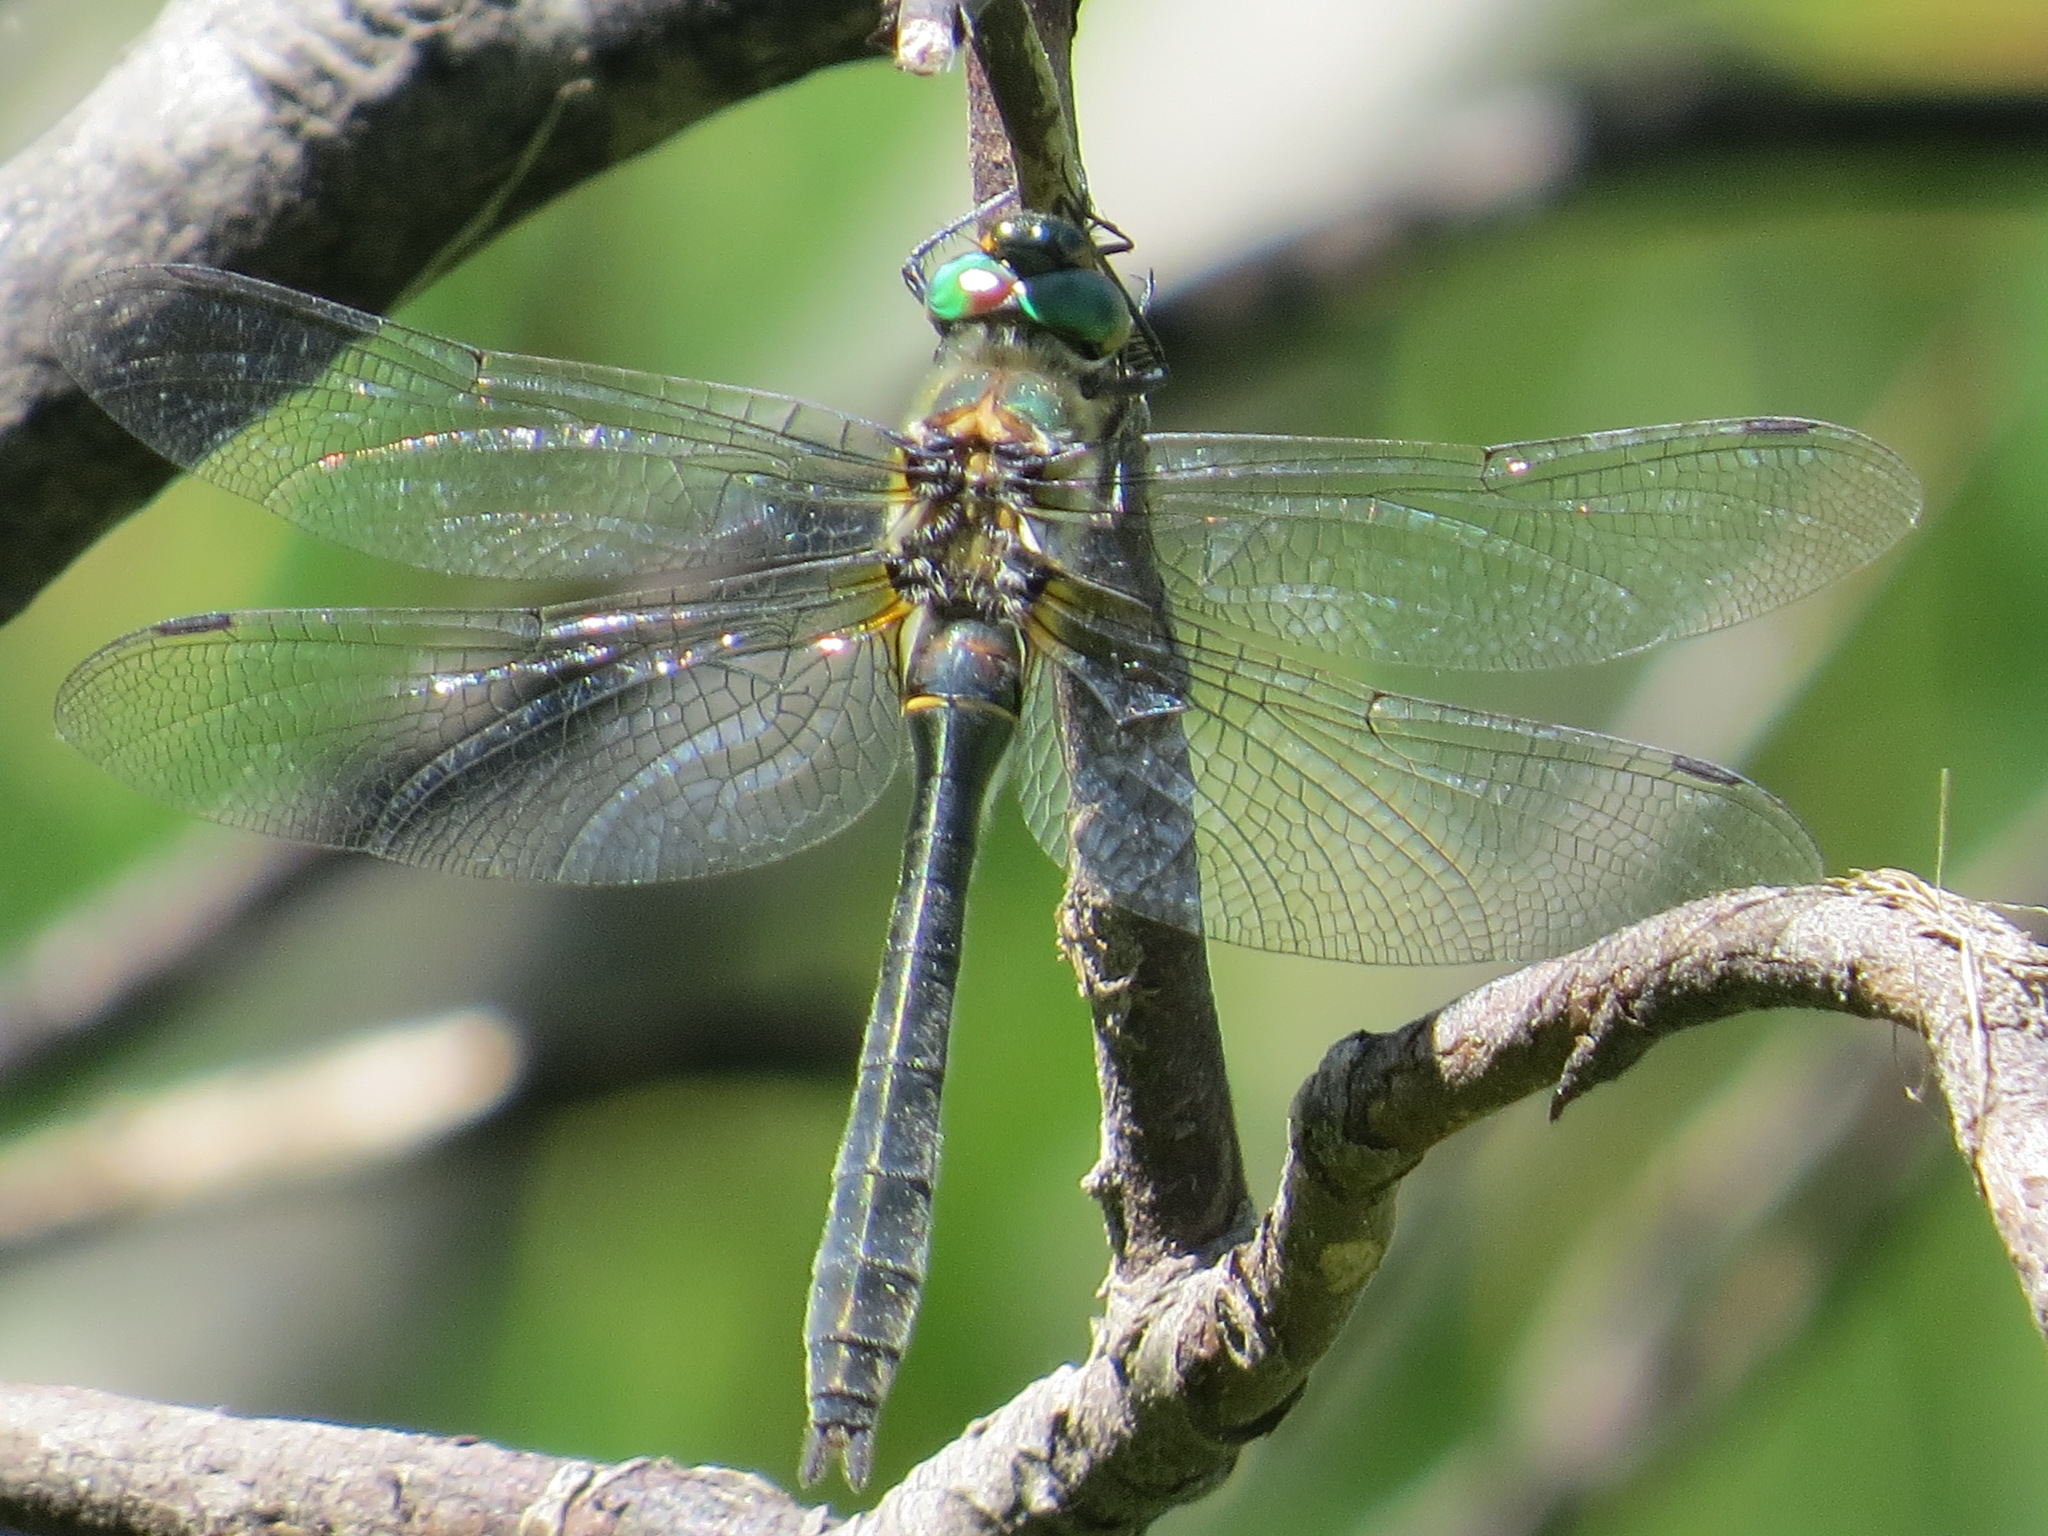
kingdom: Animalia
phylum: Arthropoda
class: Insecta
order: Odonata
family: Corduliidae
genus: Cordulia
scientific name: Cordulia shurtleffii
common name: American emerald
